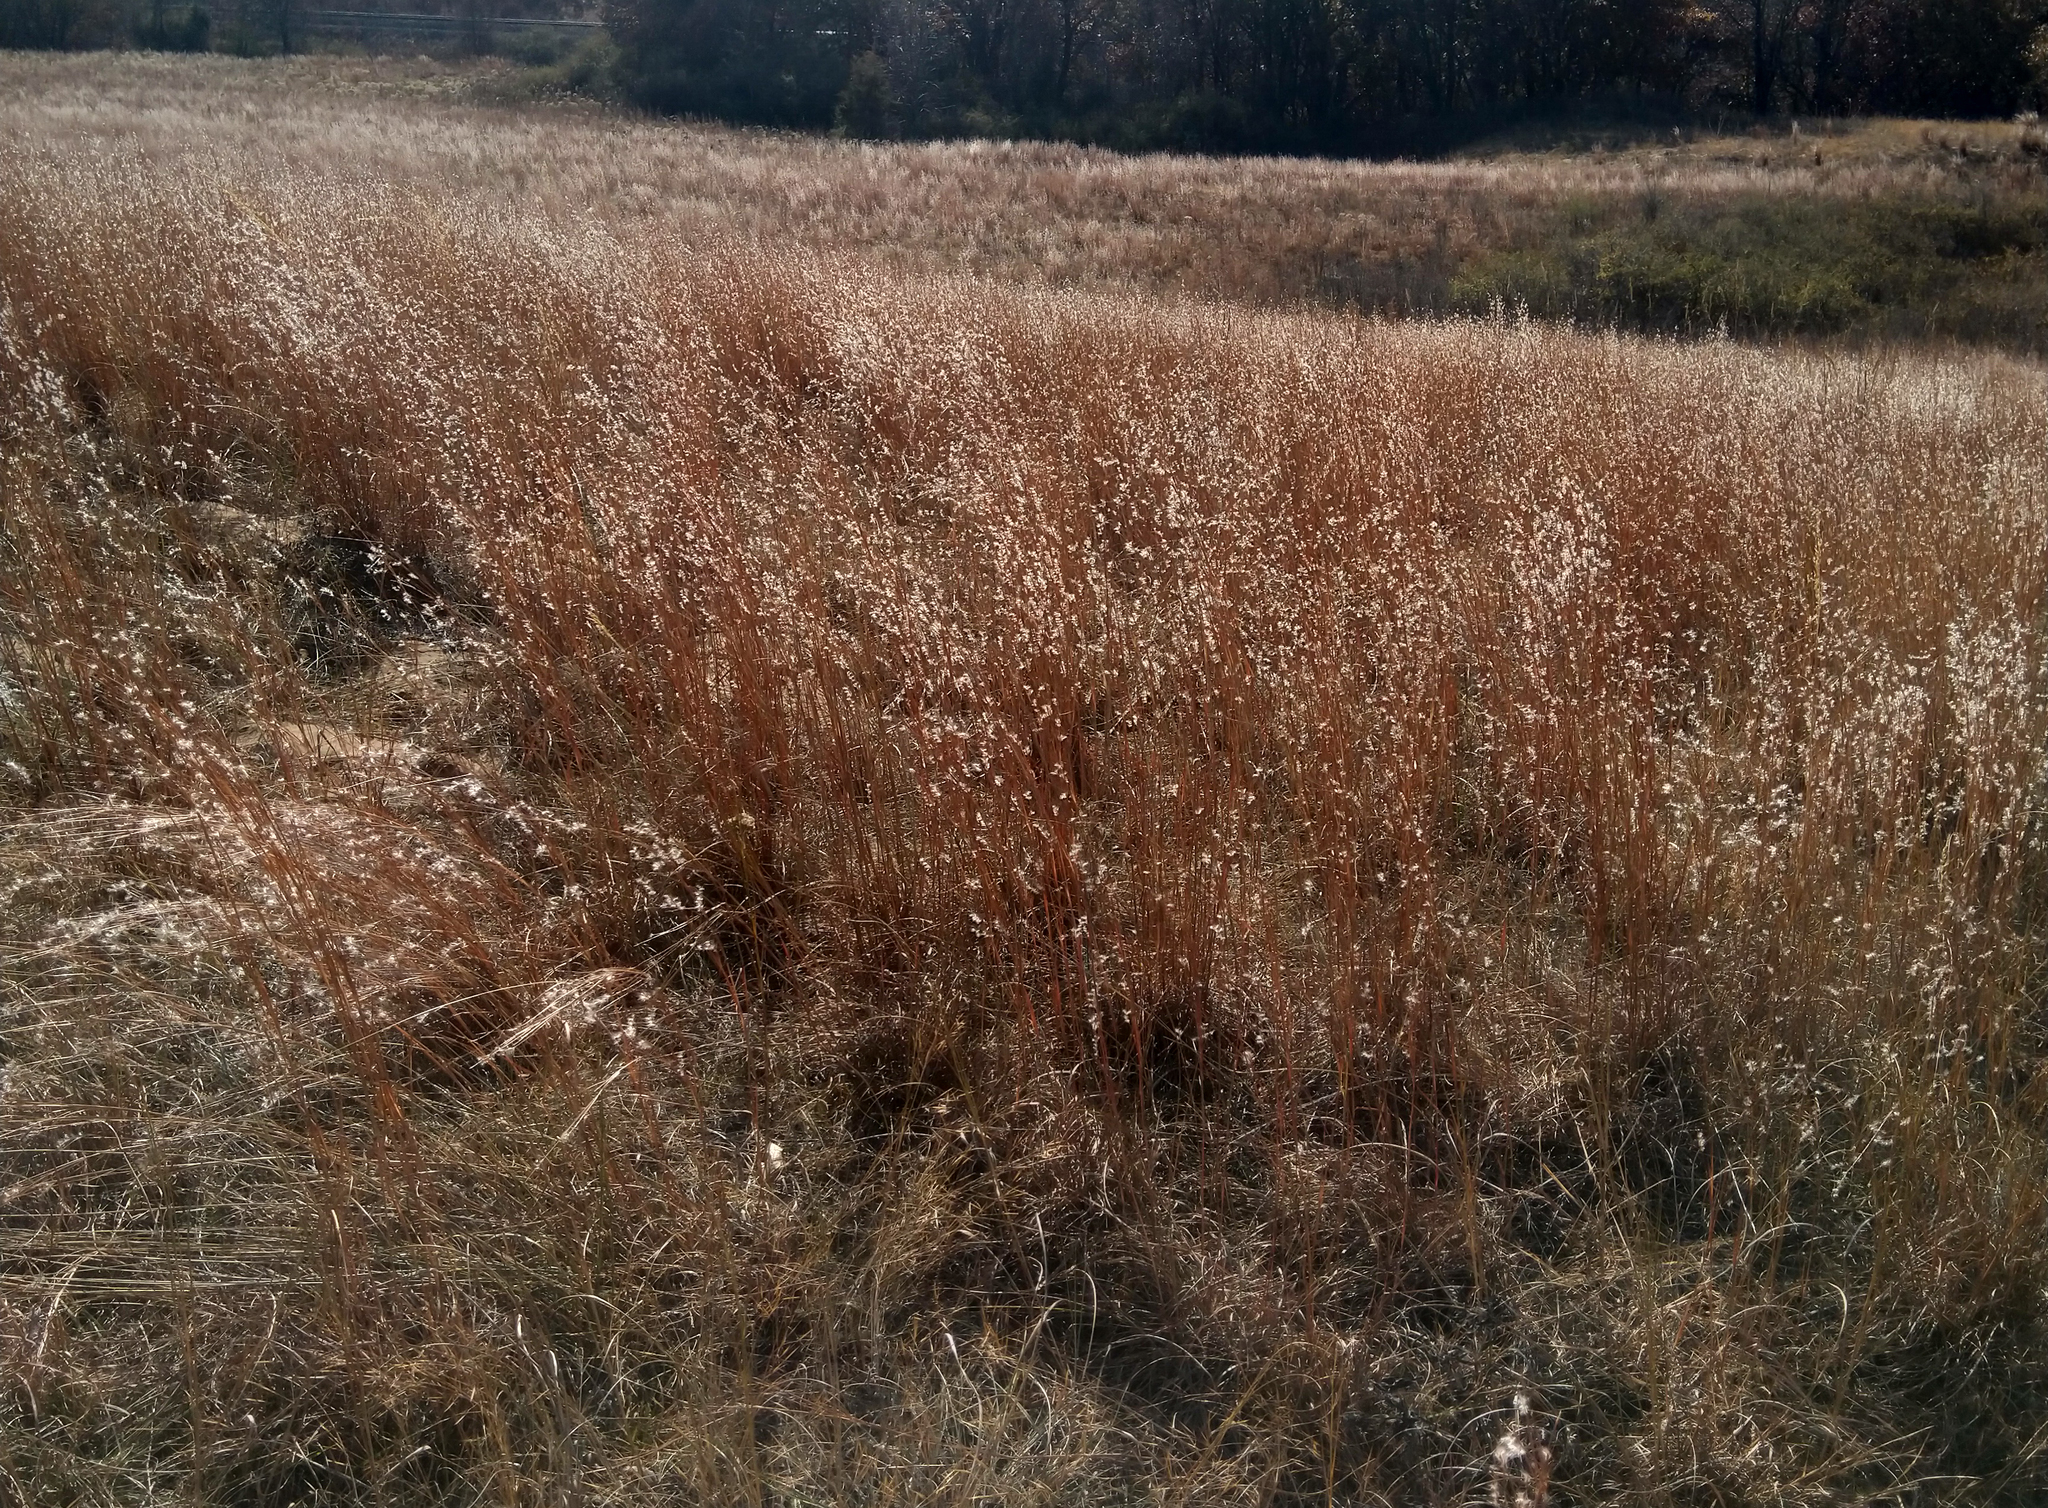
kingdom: Plantae
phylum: Tracheophyta
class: Liliopsida
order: Poales
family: Poaceae
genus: Schizachyrium
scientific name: Schizachyrium scoparium
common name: Little bluestem
